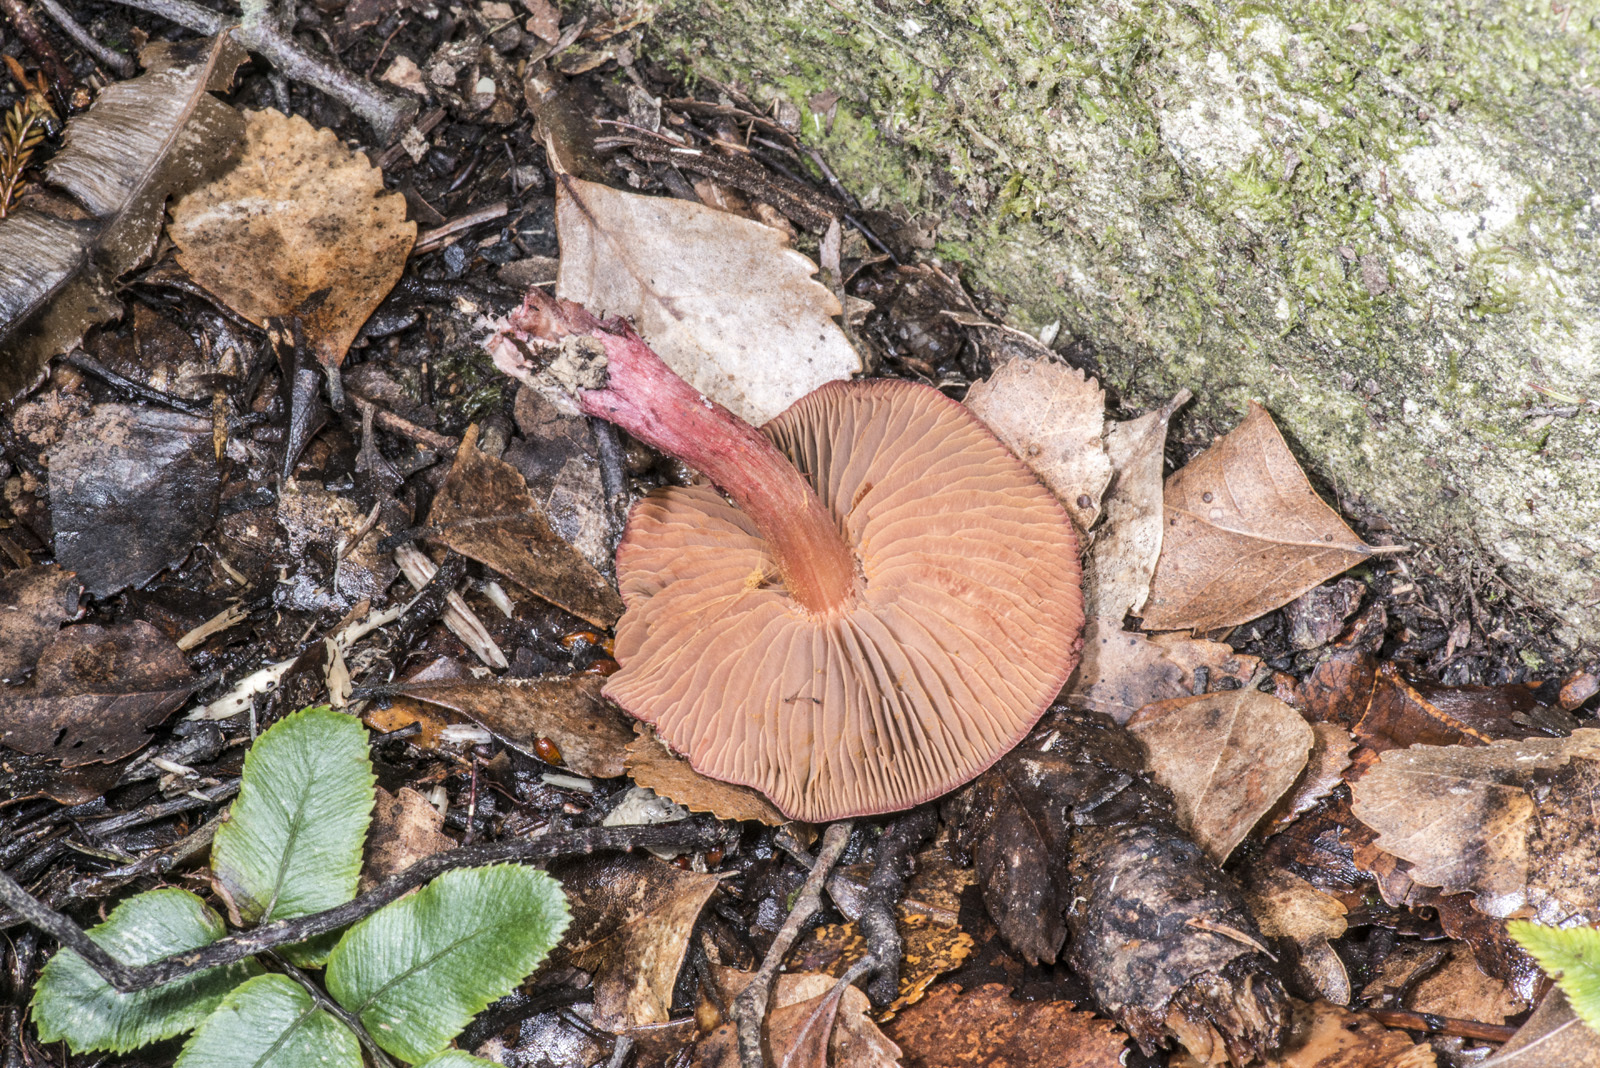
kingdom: Fungi
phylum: Basidiomycota
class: Agaricomycetes
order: Agaricales
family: Cortinariaceae
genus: Cortinarius
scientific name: Cortinarius cardinalis
